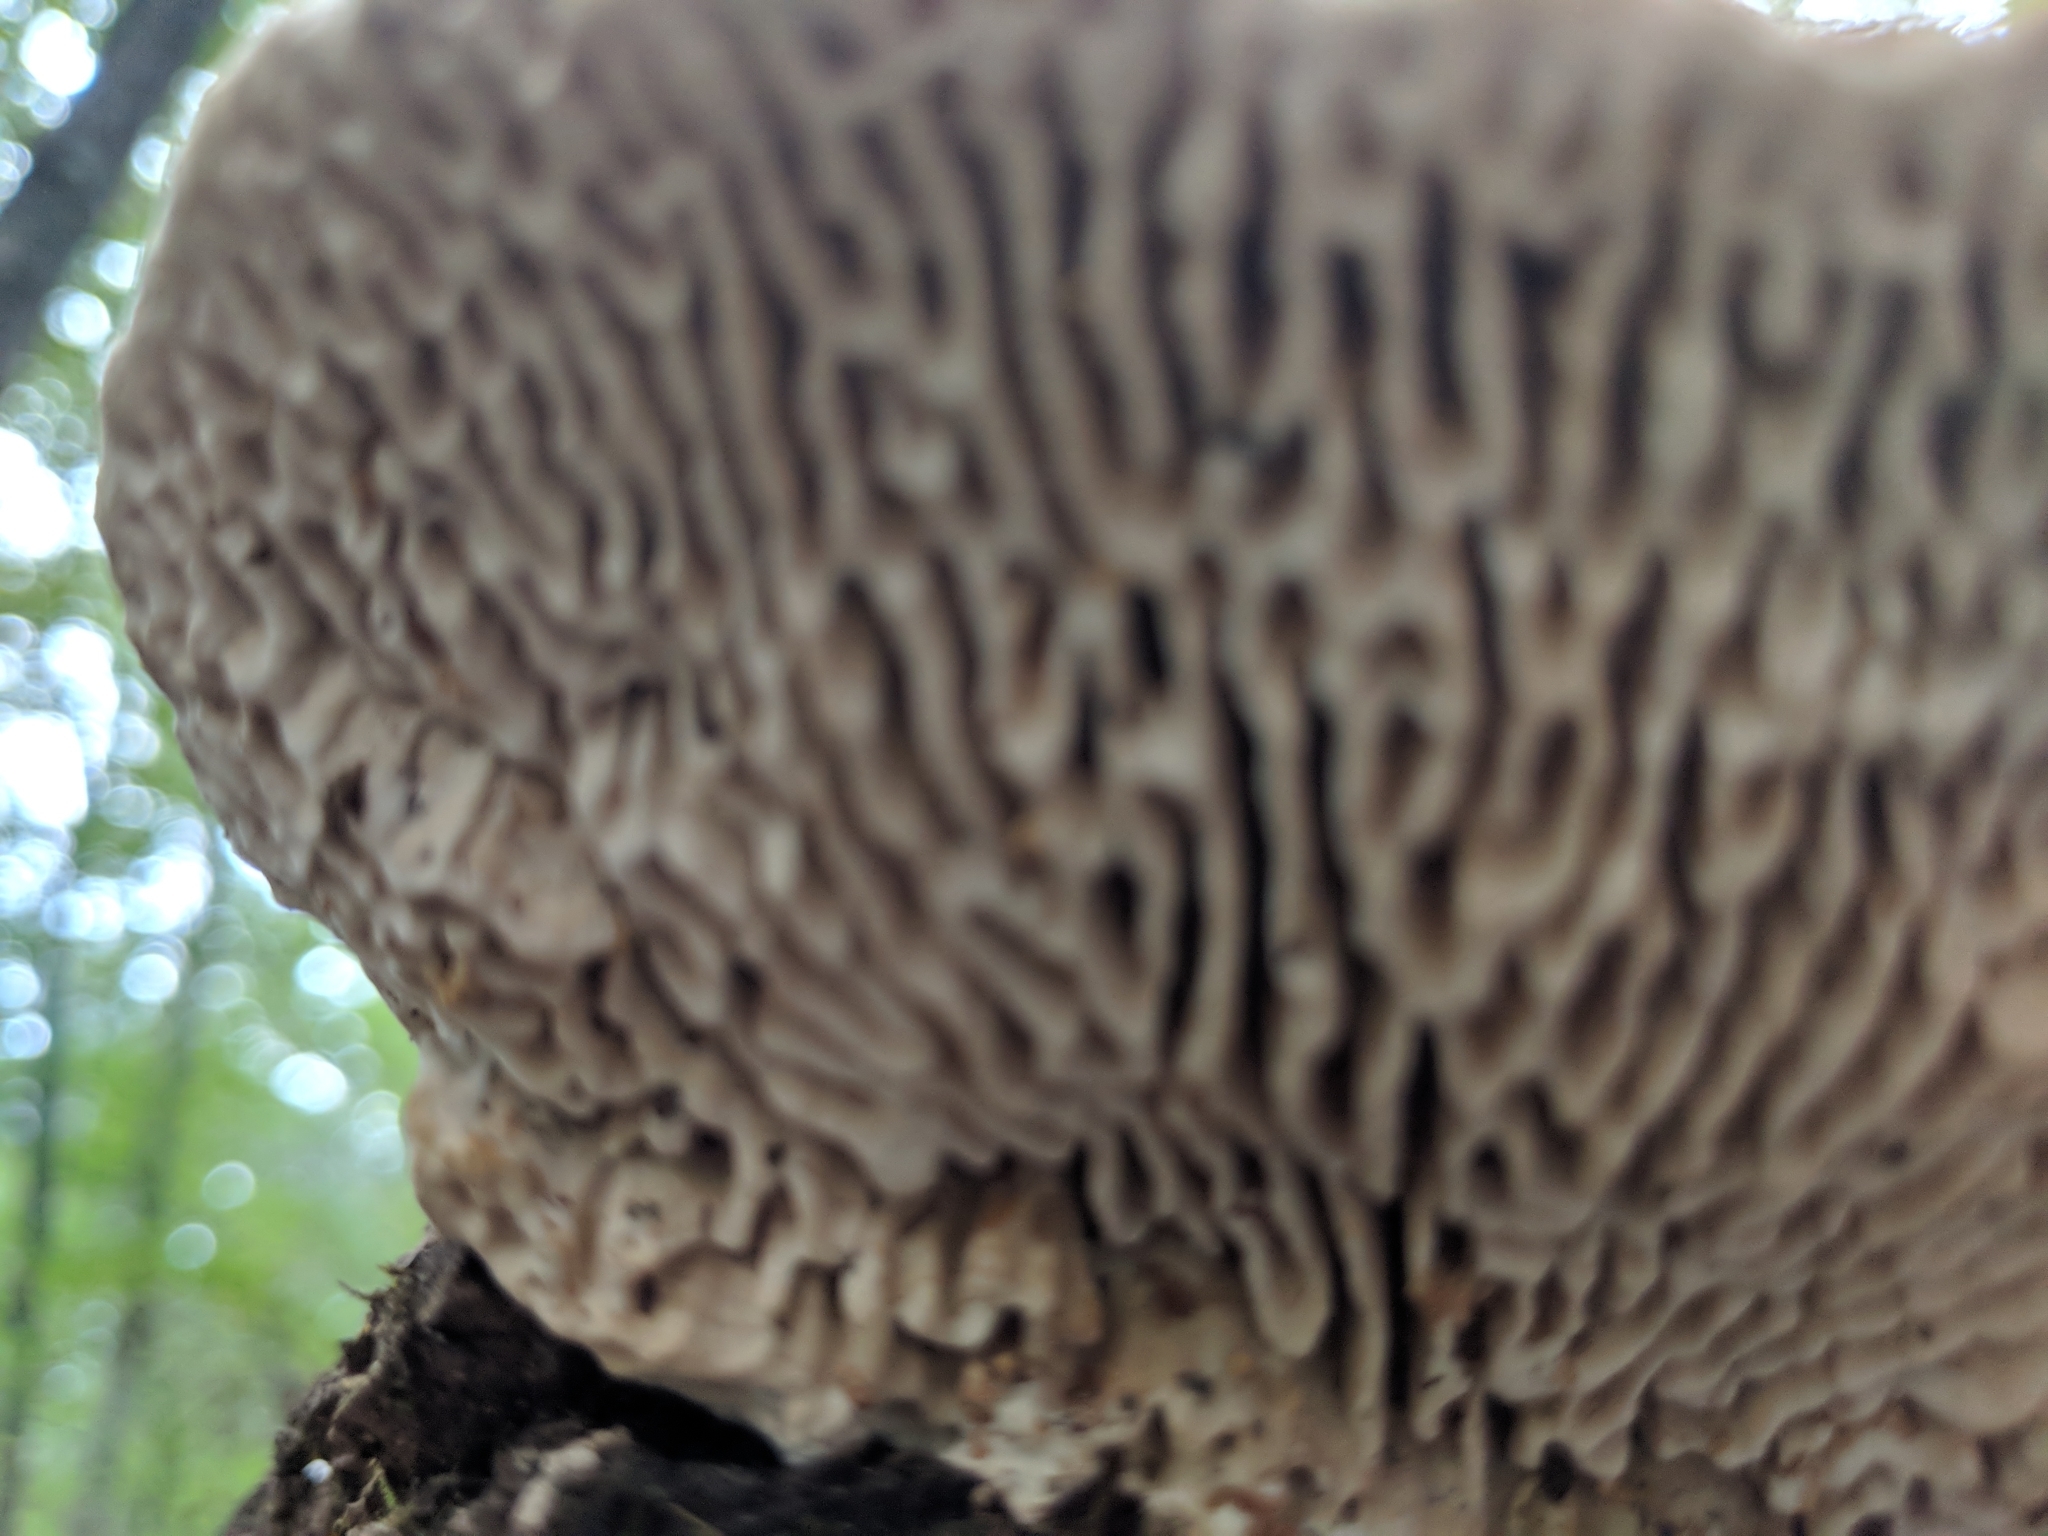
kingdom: Fungi
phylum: Basidiomycota
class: Agaricomycetes
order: Polyporales
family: Fomitopsidaceae
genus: Fomitopsis
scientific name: Fomitopsis
